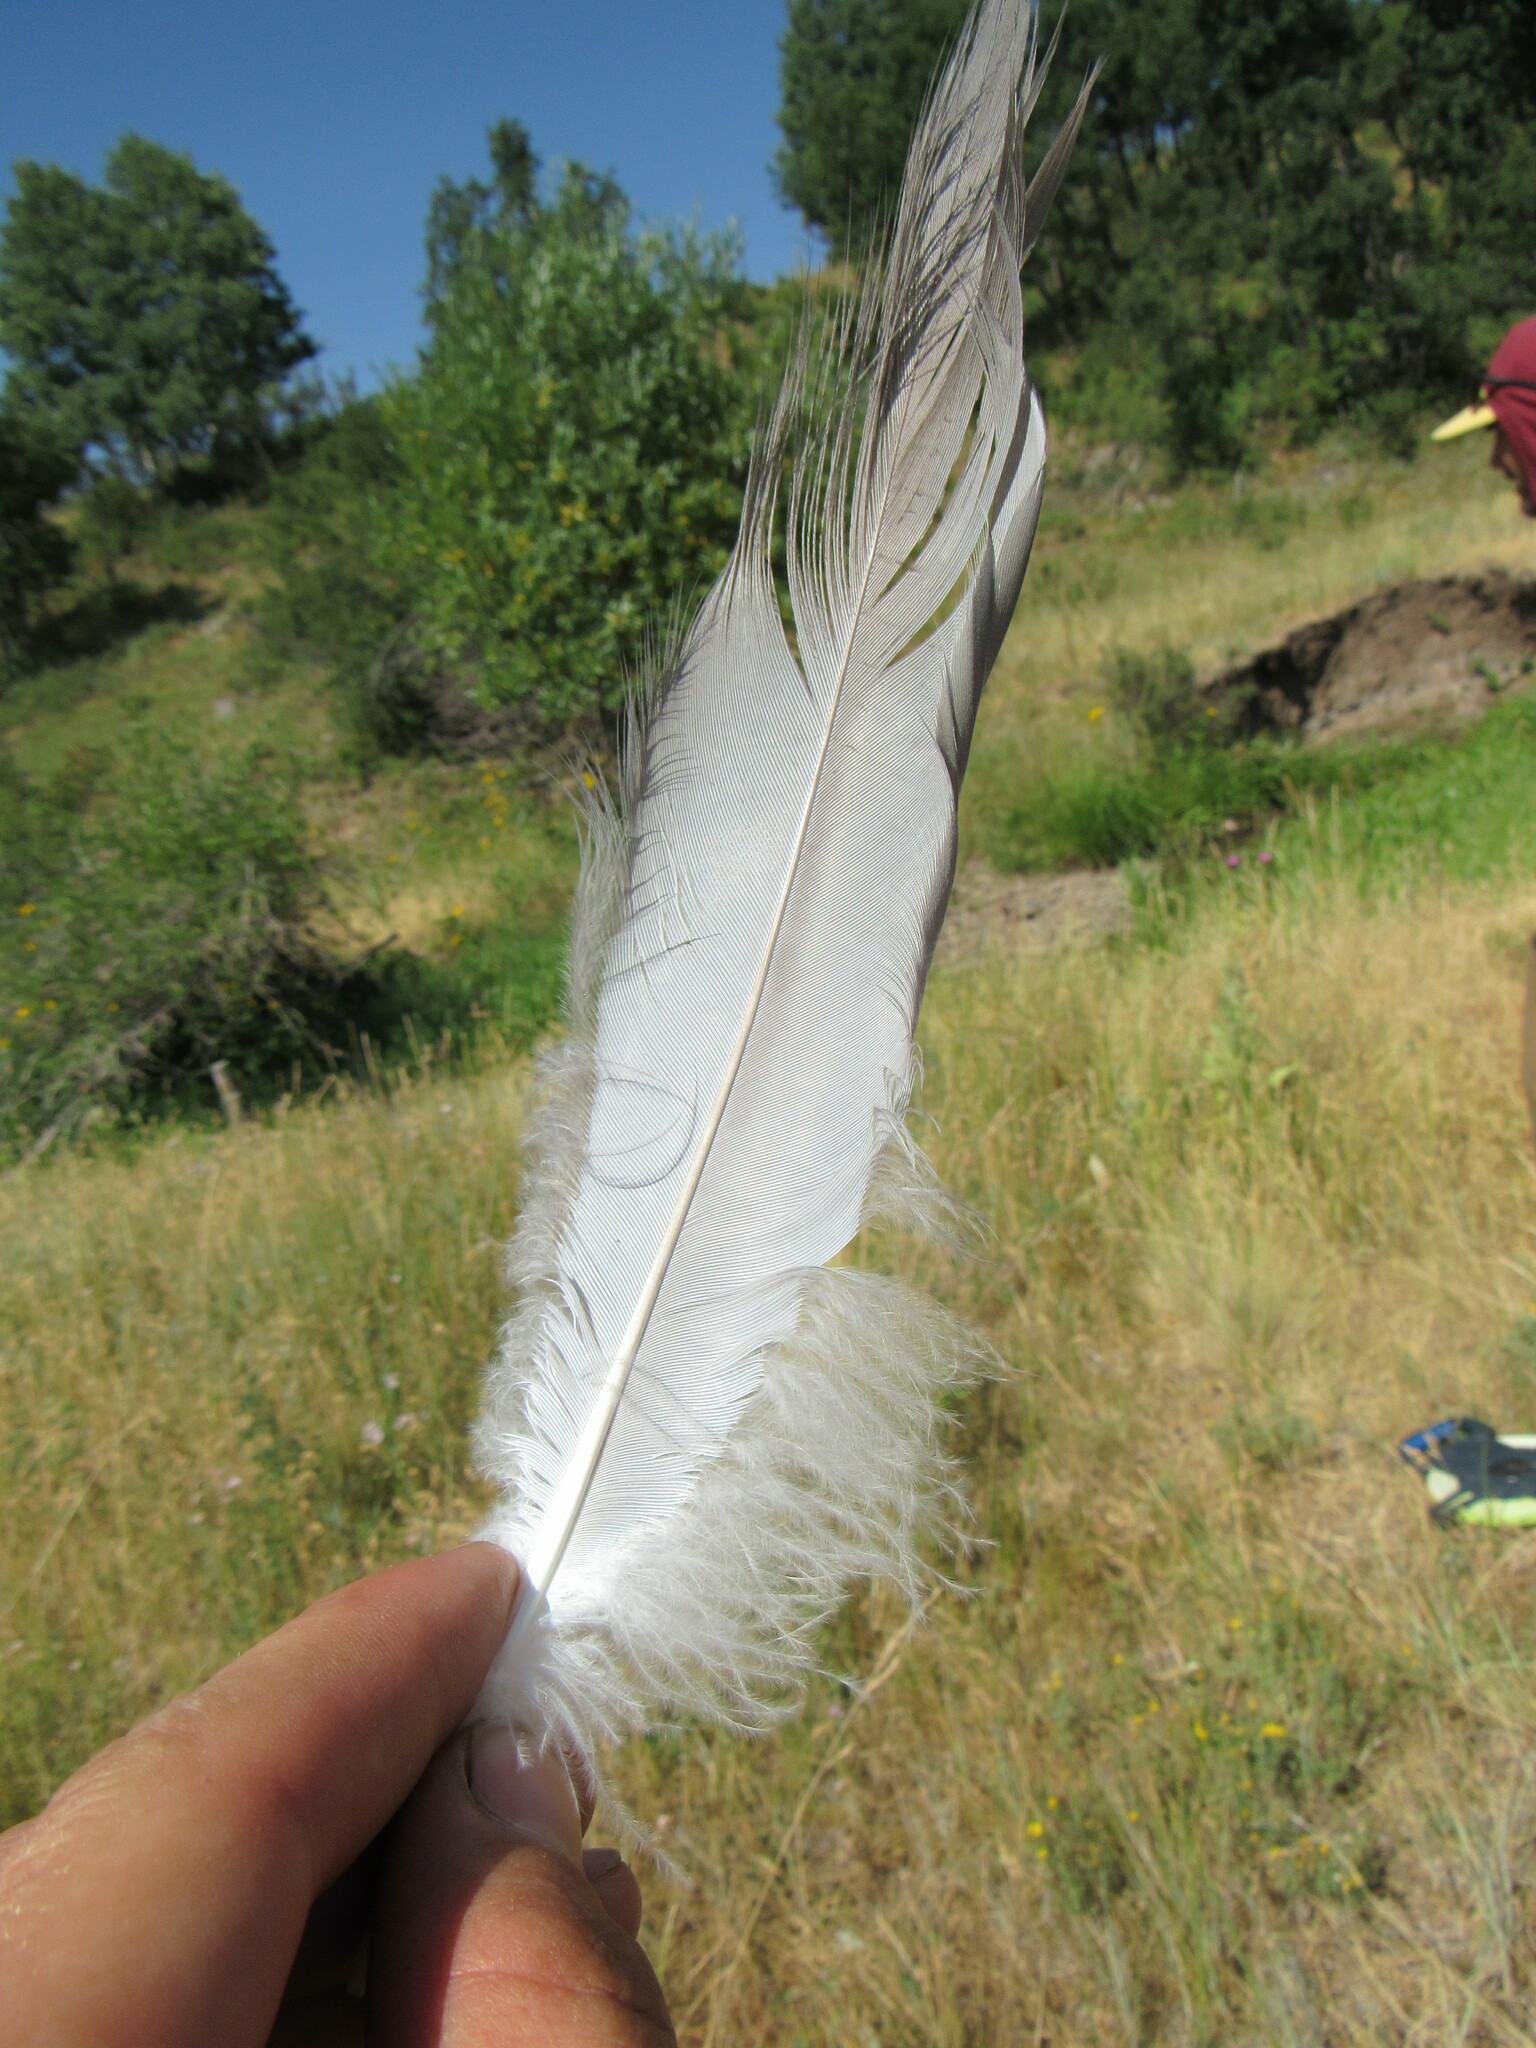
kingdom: Animalia
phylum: Chordata
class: Aves
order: Pelecaniformes
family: Ardeidae
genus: Ardea
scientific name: Ardea herodias
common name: Great blue heron
